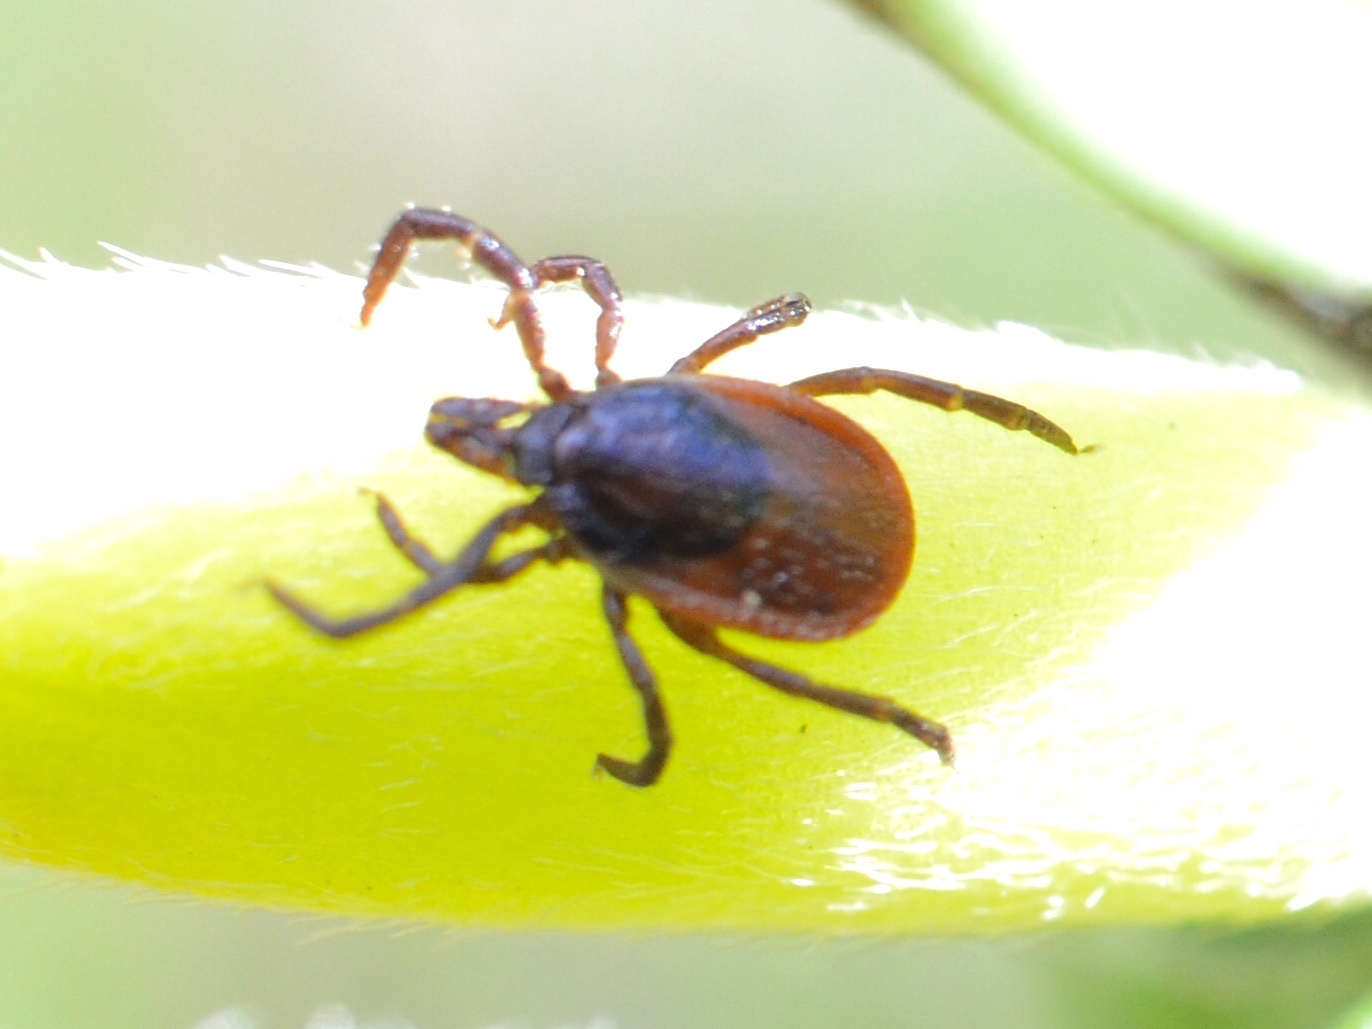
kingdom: Animalia
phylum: Arthropoda
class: Arachnida
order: Ixodida
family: Ixodidae
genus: Ixodes
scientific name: Ixodes ricinus
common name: Castor bean tick
